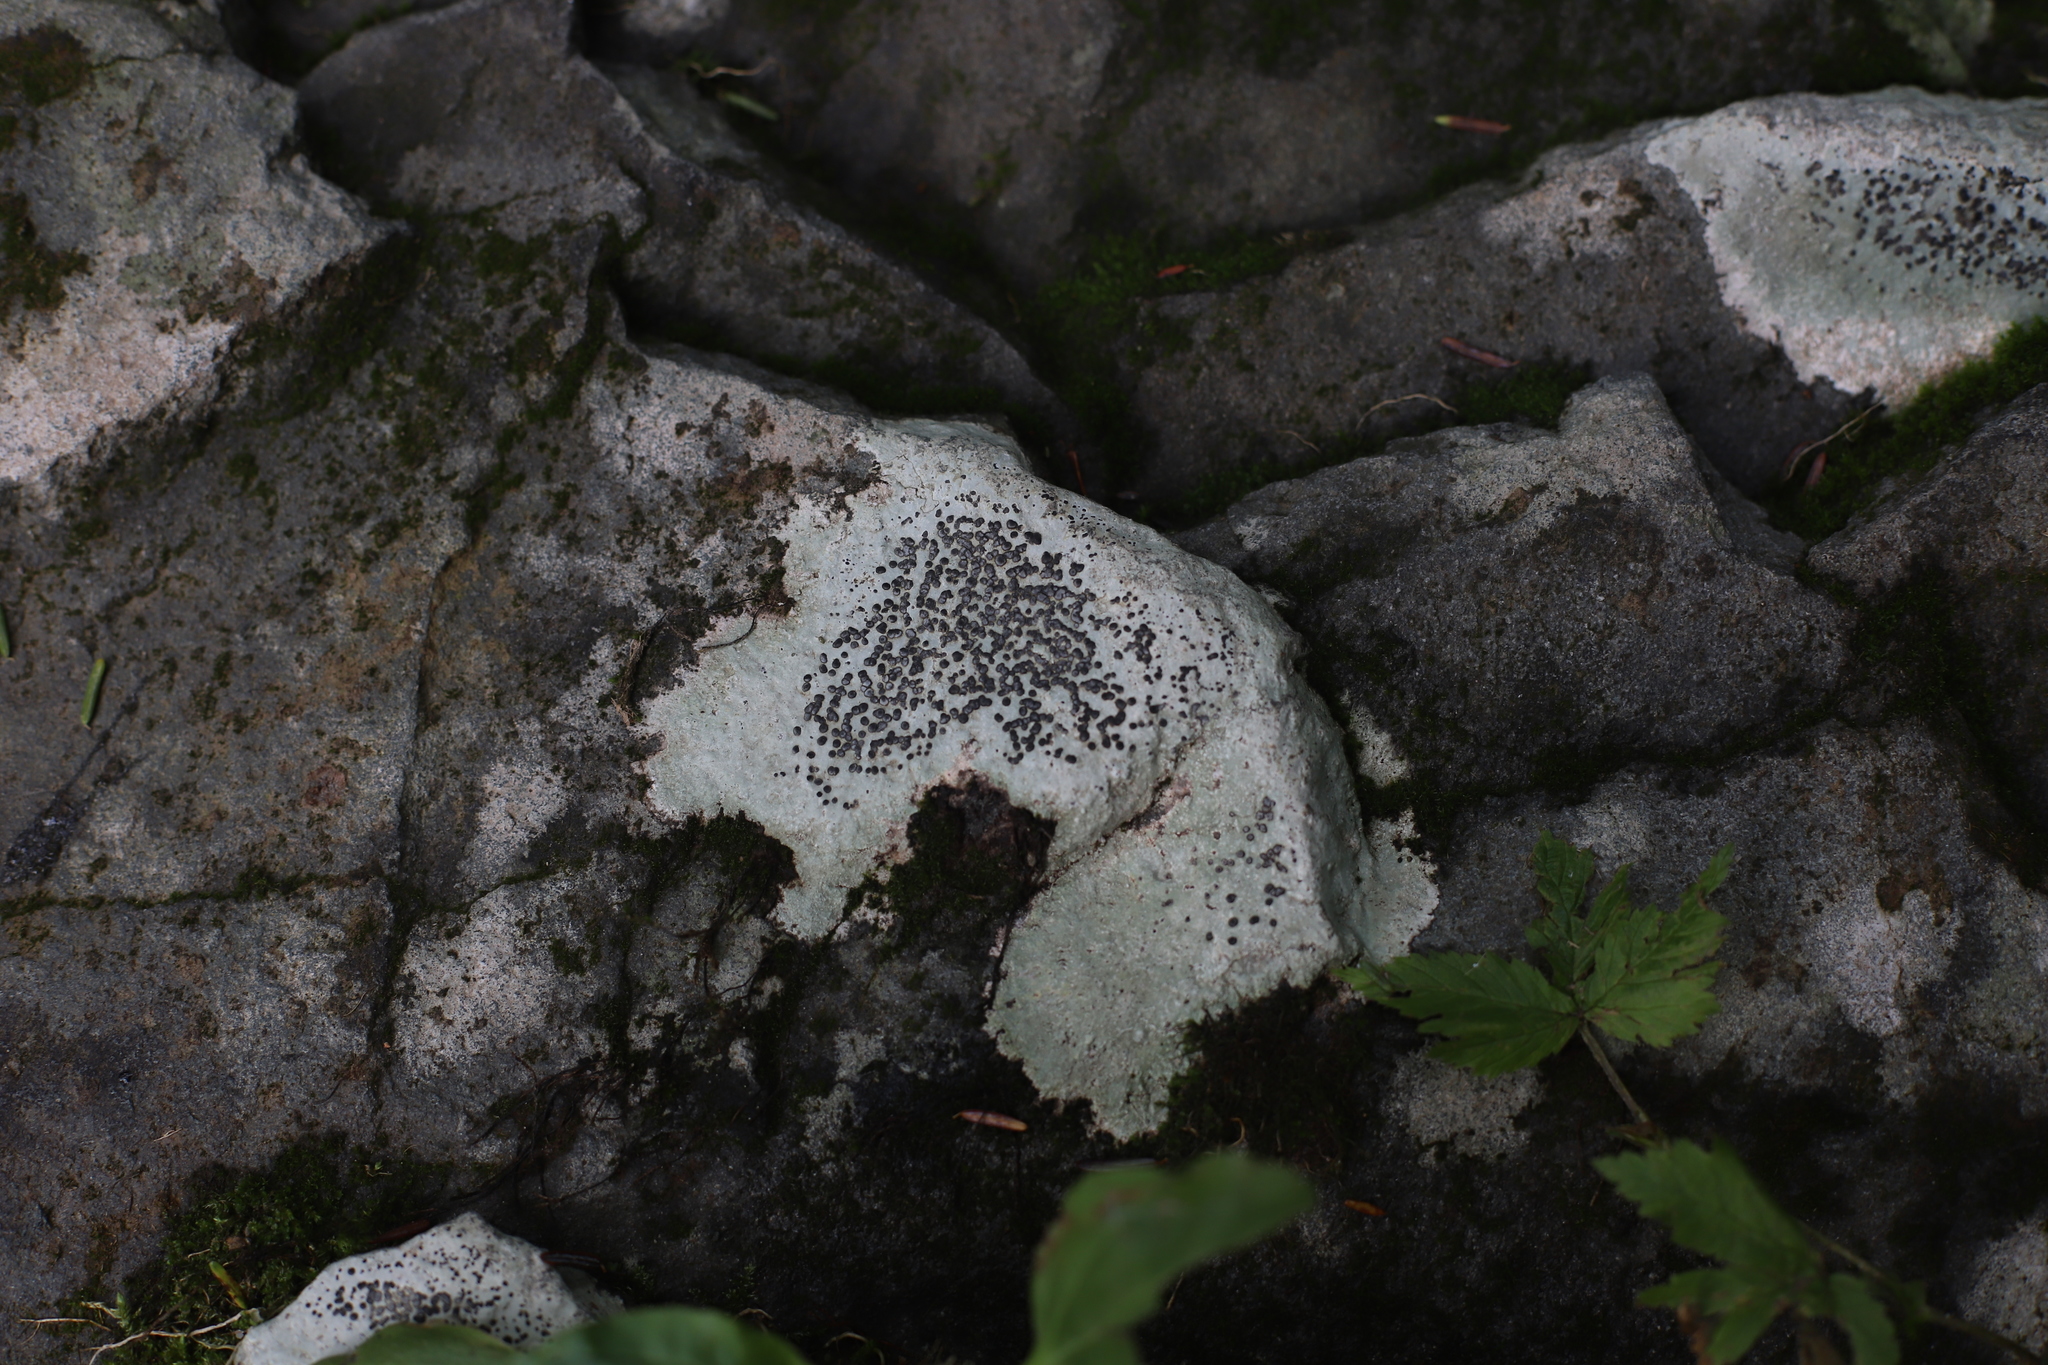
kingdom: Fungi
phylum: Ascomycota
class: Lecanoromycetes
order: Lecideales
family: Lecideaceae
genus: Porpidia
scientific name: Porpidia macrocarpa
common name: Common boulder lichen
